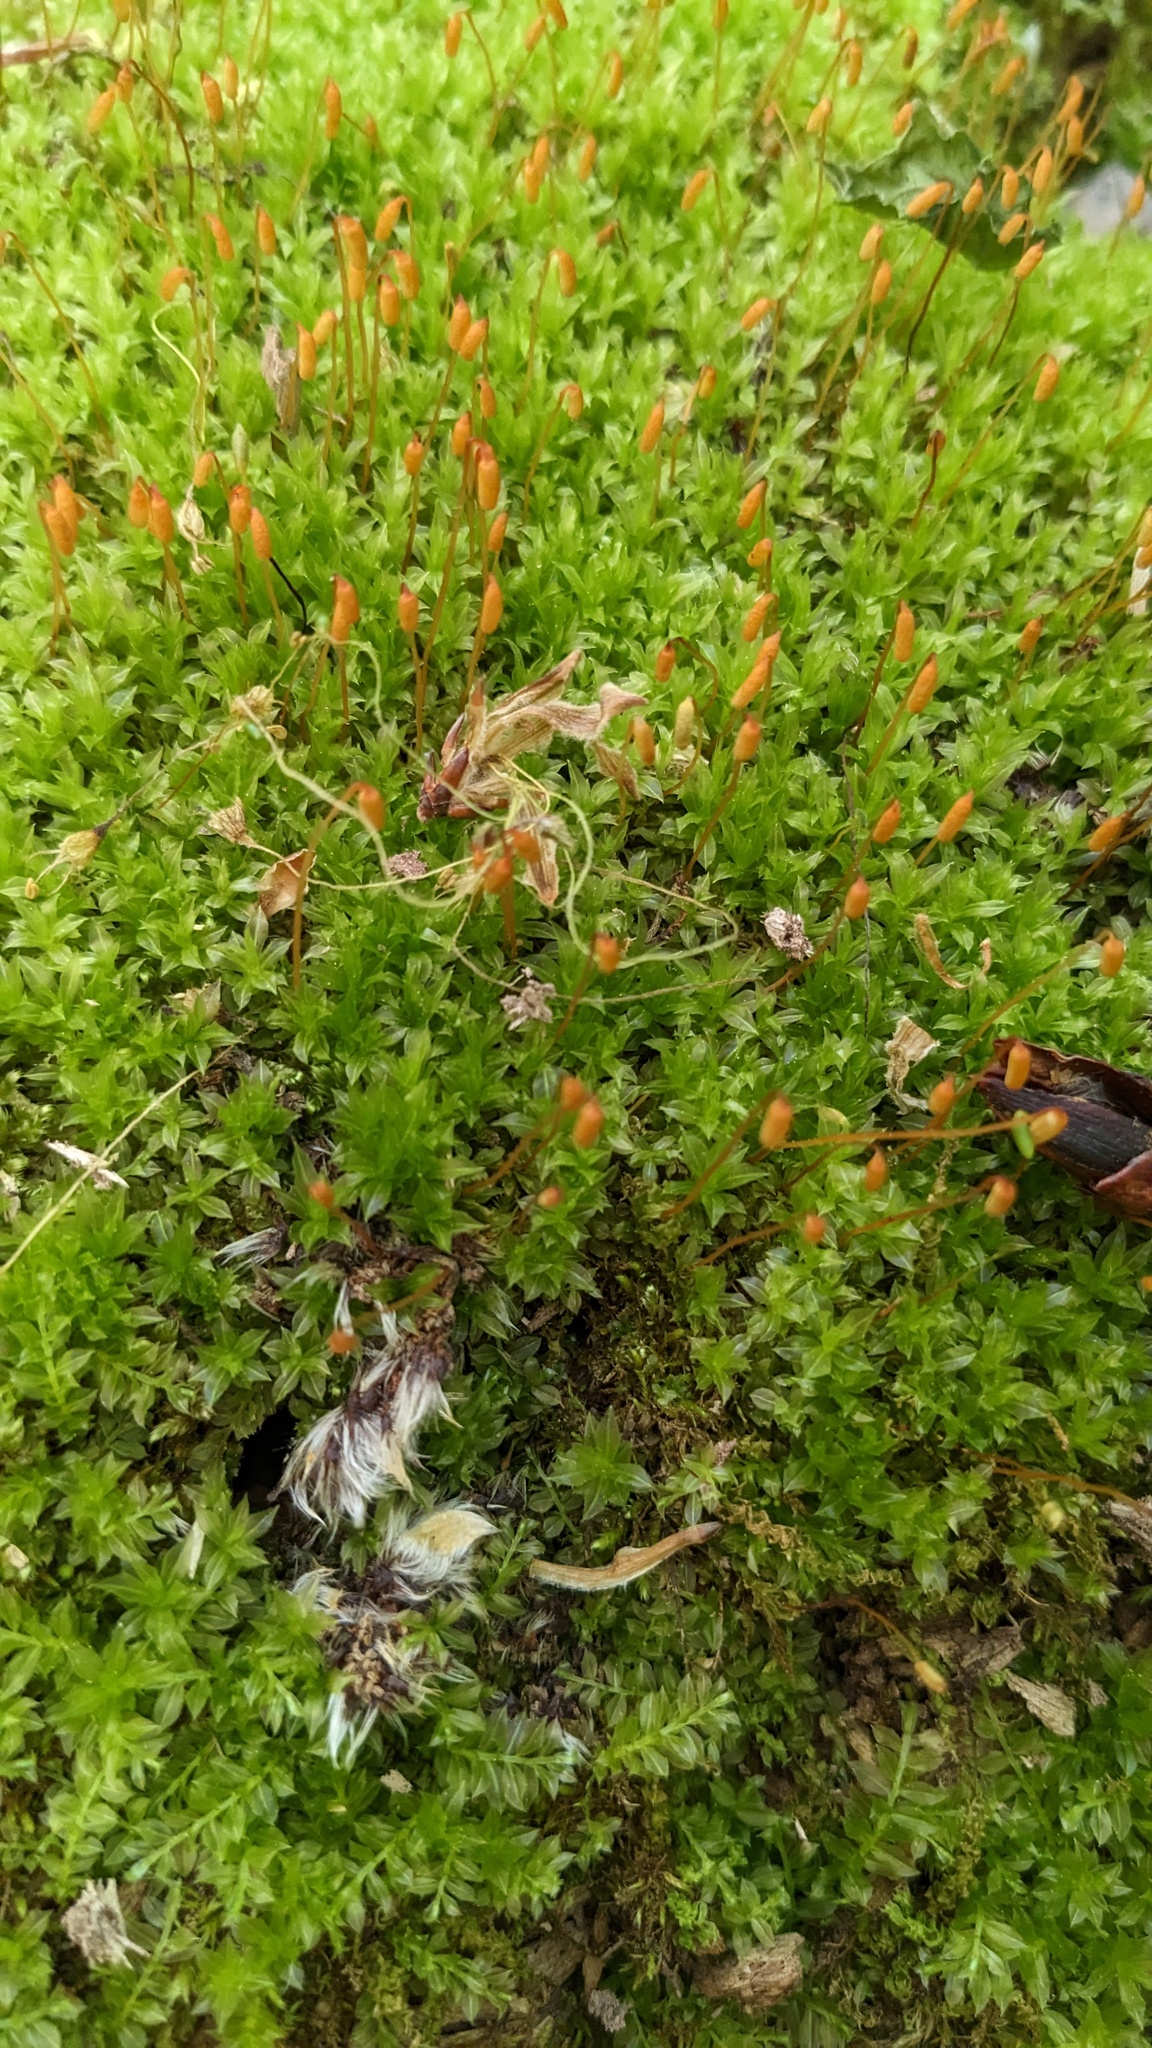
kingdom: Plantae
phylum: Bryophyta
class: Bryopsida
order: Bryales
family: Mniaceae
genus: Plagiomnium
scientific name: Plagiomnium cuspidatum
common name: Woodsy leafy moss
